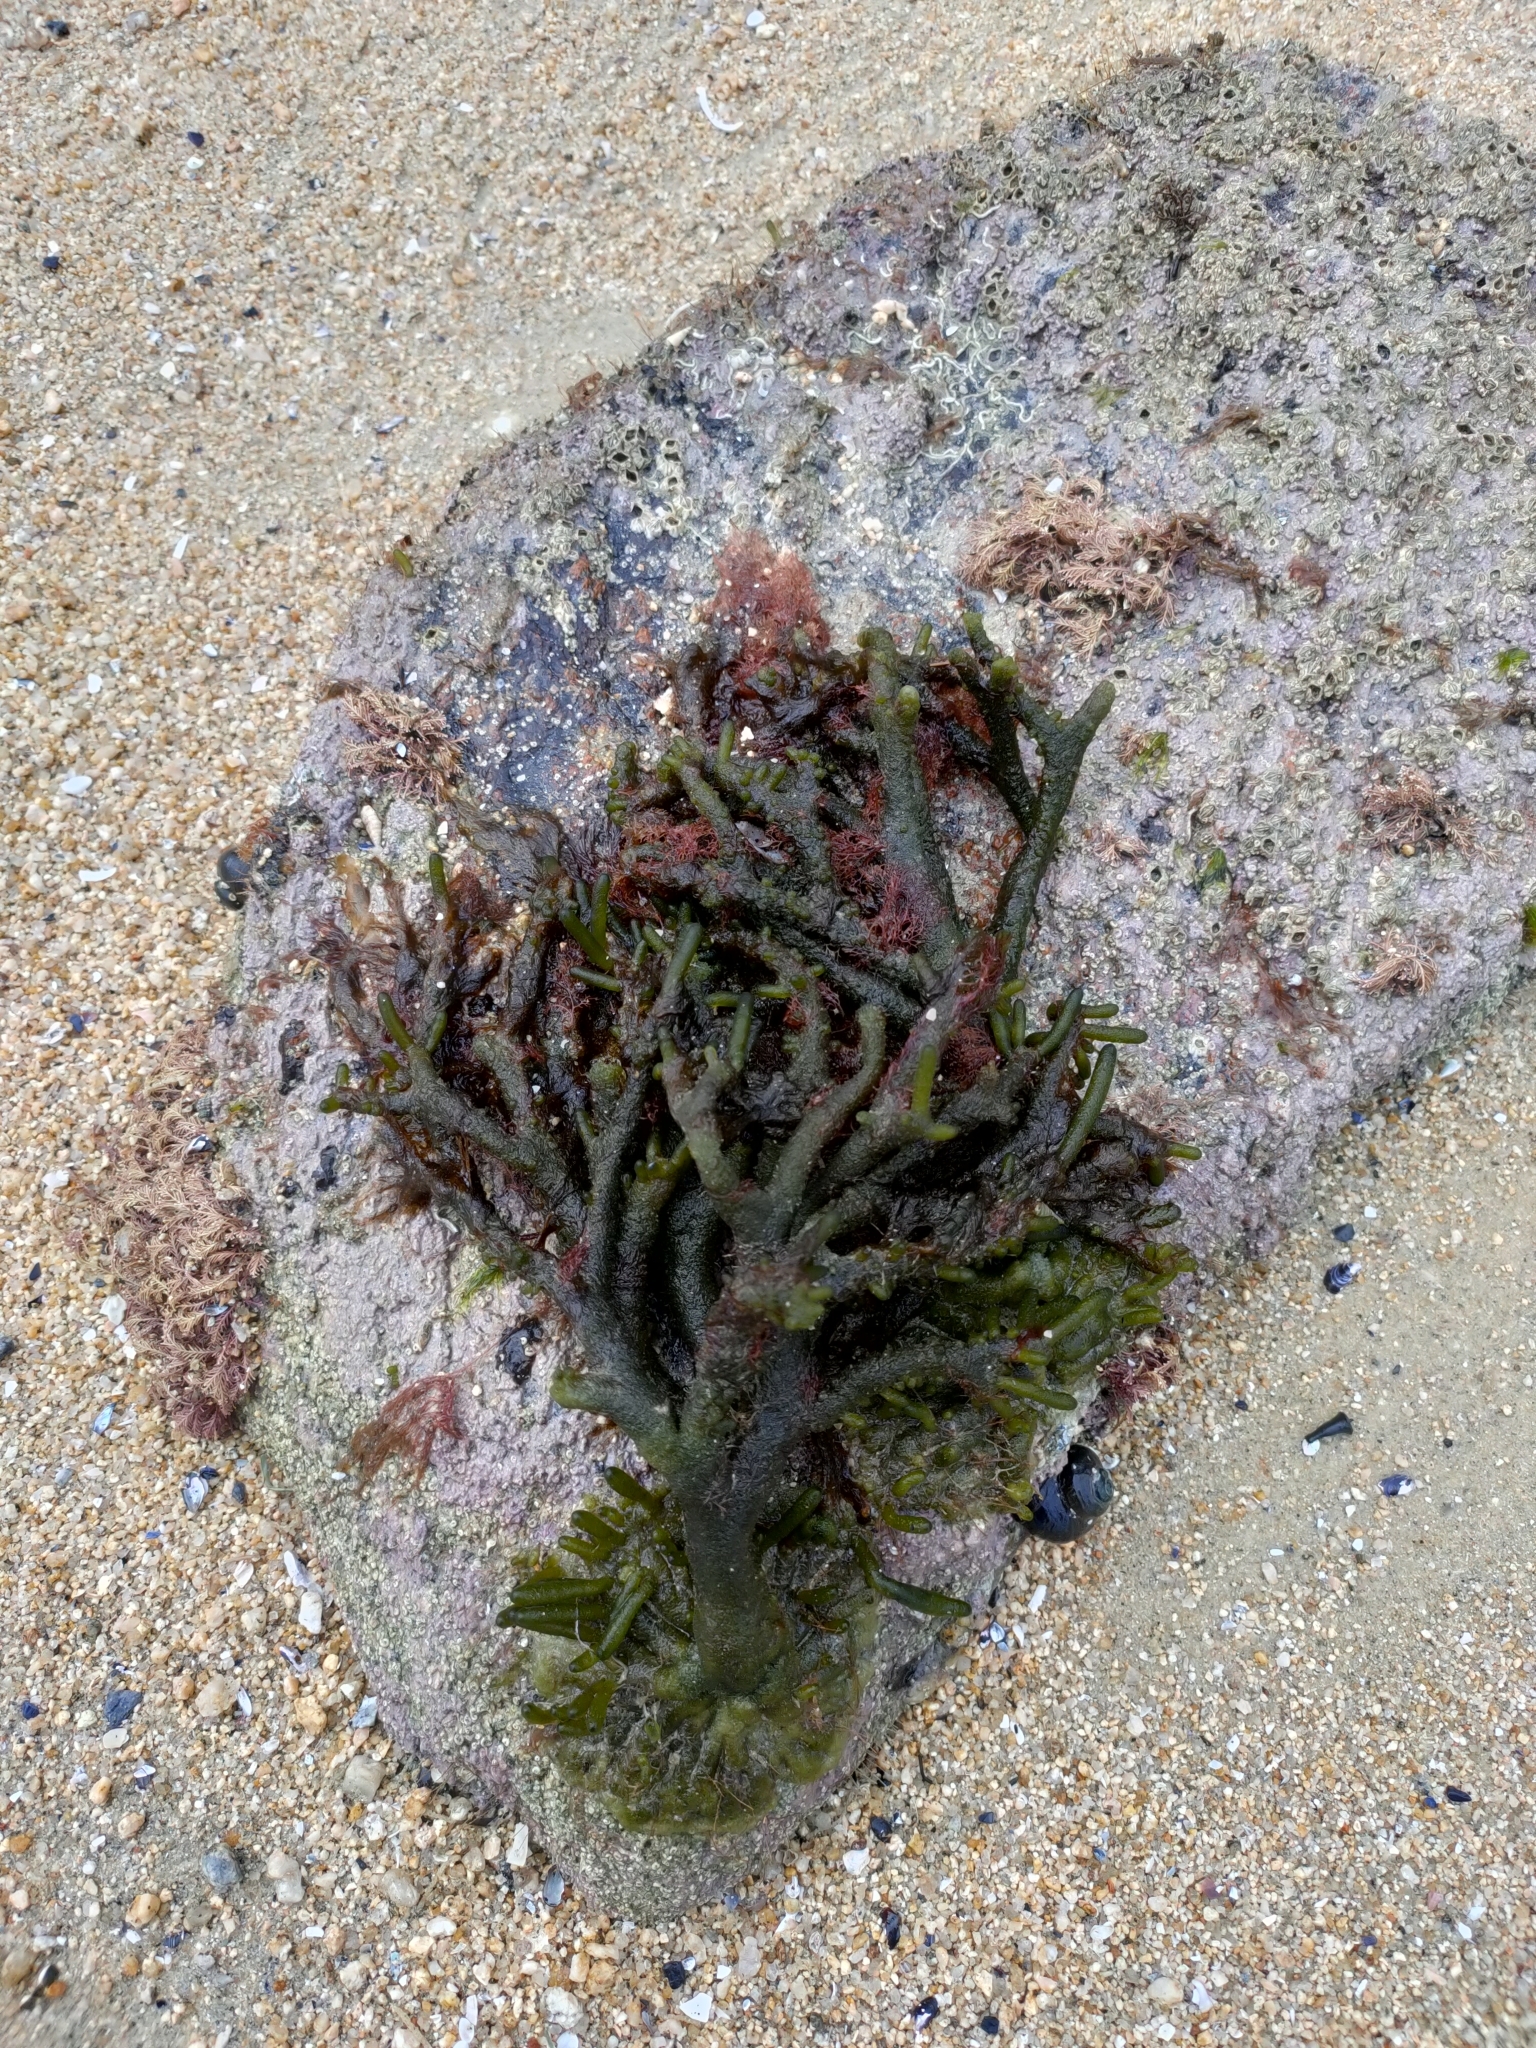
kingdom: Plantae
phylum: Chlorophyta
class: Ulvophyceae
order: Bryopsidales
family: Codiaceae
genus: Codium
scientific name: Codium fragile
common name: Dead man's fingers
